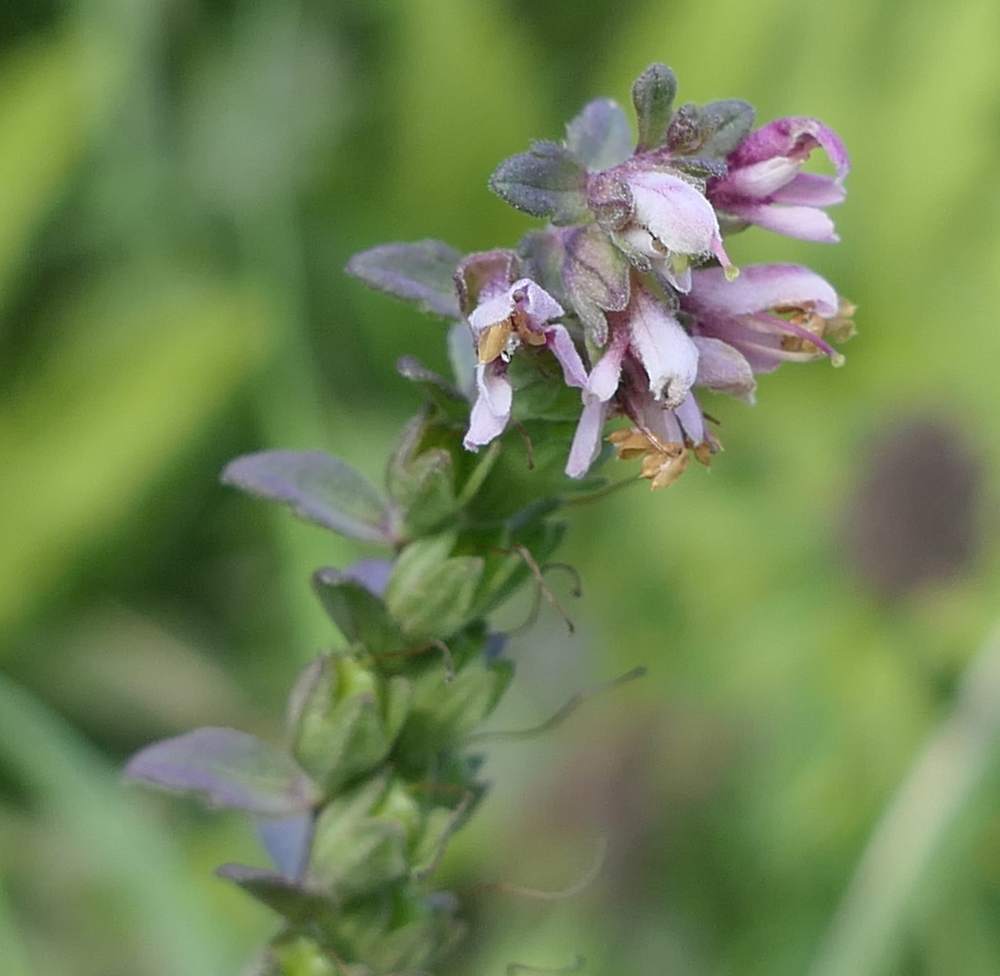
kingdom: Plantae
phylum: Tracheophyta
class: Magnoliopsida
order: Lamiales
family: Orobanchaceae
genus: Odontites
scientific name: Odontites vulgaris
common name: Broomrape
